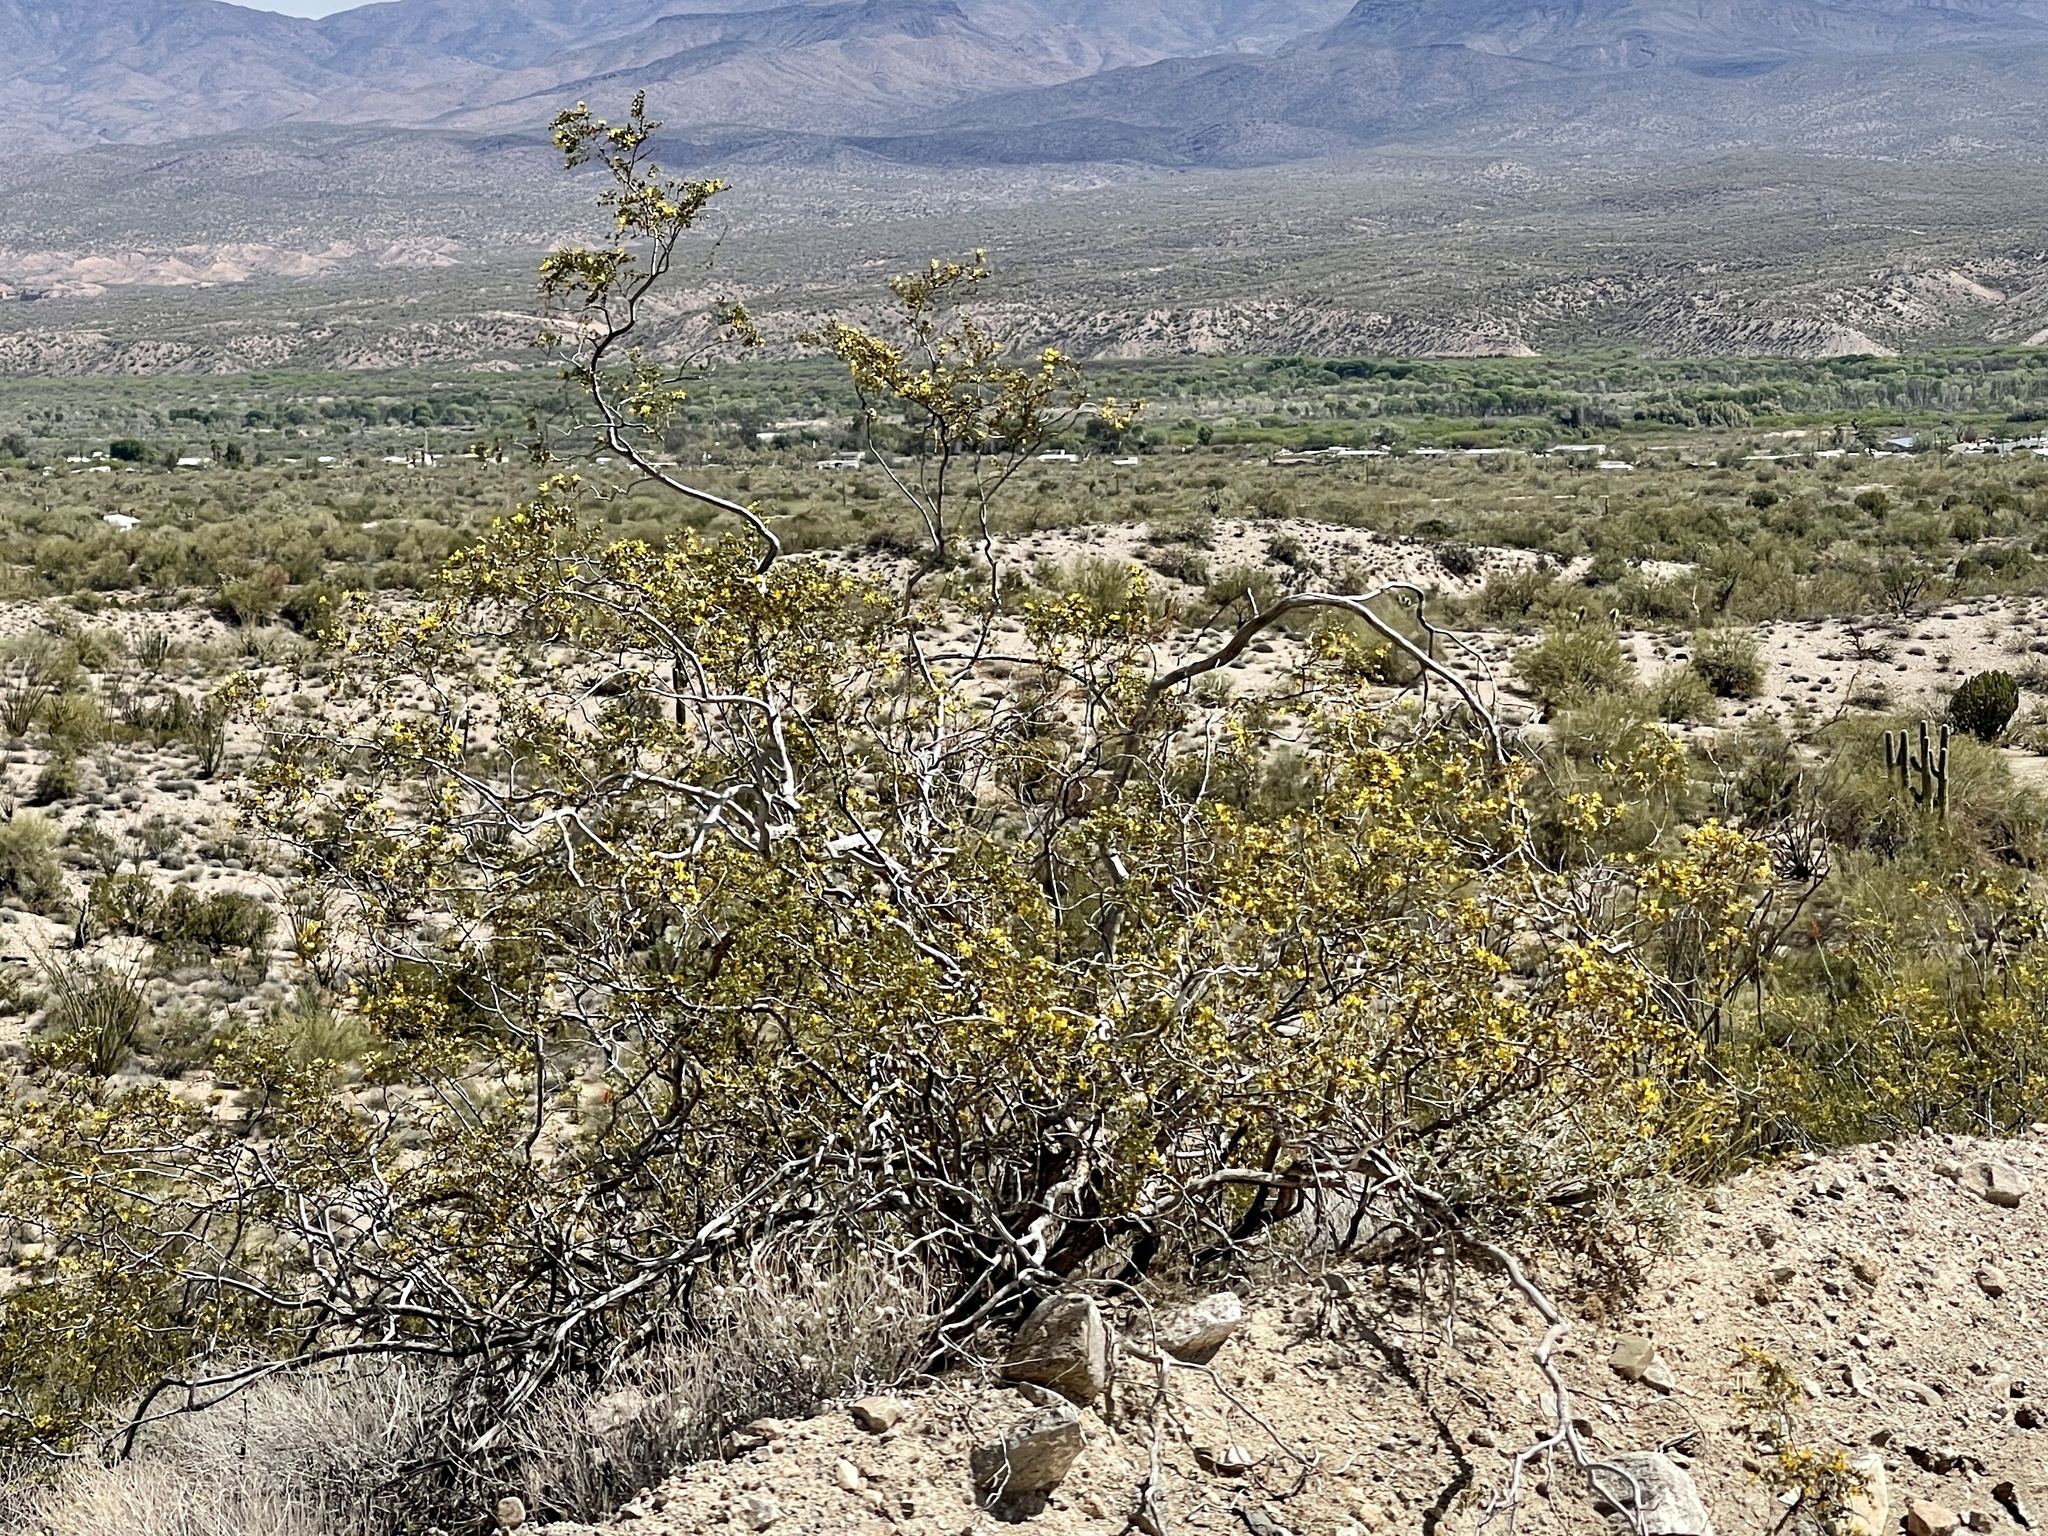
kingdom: Plantae
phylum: Tracheophyta
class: Magnoliopsida
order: Zygophyllales
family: Zygophyllaceae
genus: Larrea
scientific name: Larrea tridentata
